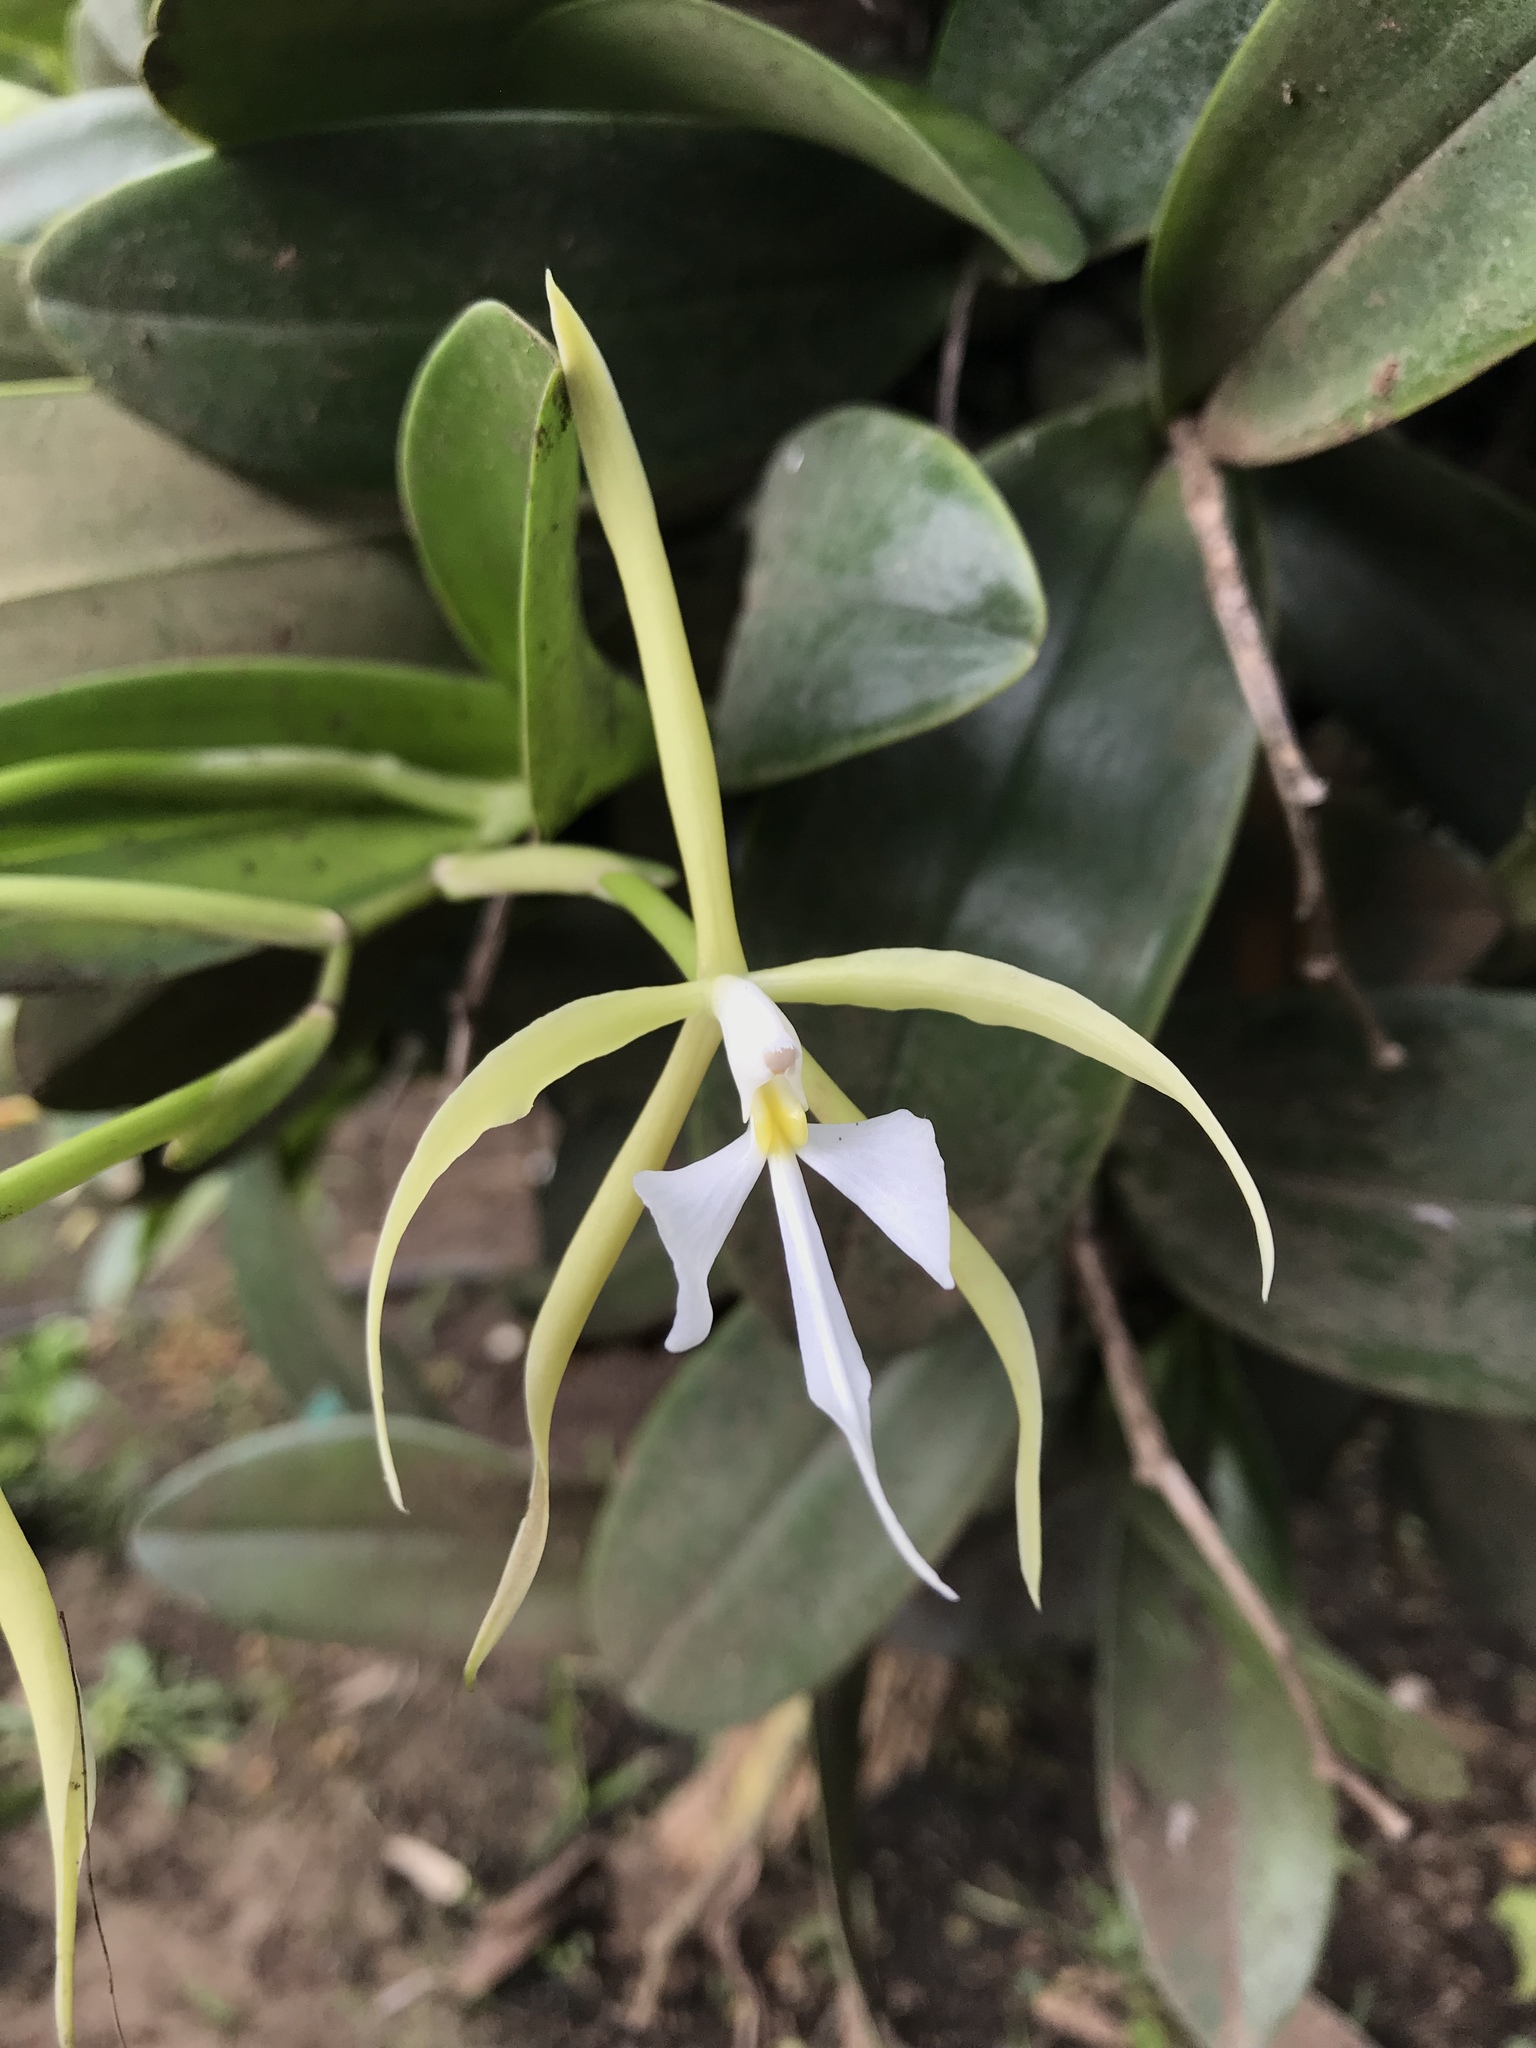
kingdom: Plantae
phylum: Tracheophyta
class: Liliopsida
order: Asparagales
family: Orchidaceae
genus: Epidendrum
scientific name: Epidendrum oerstedii
